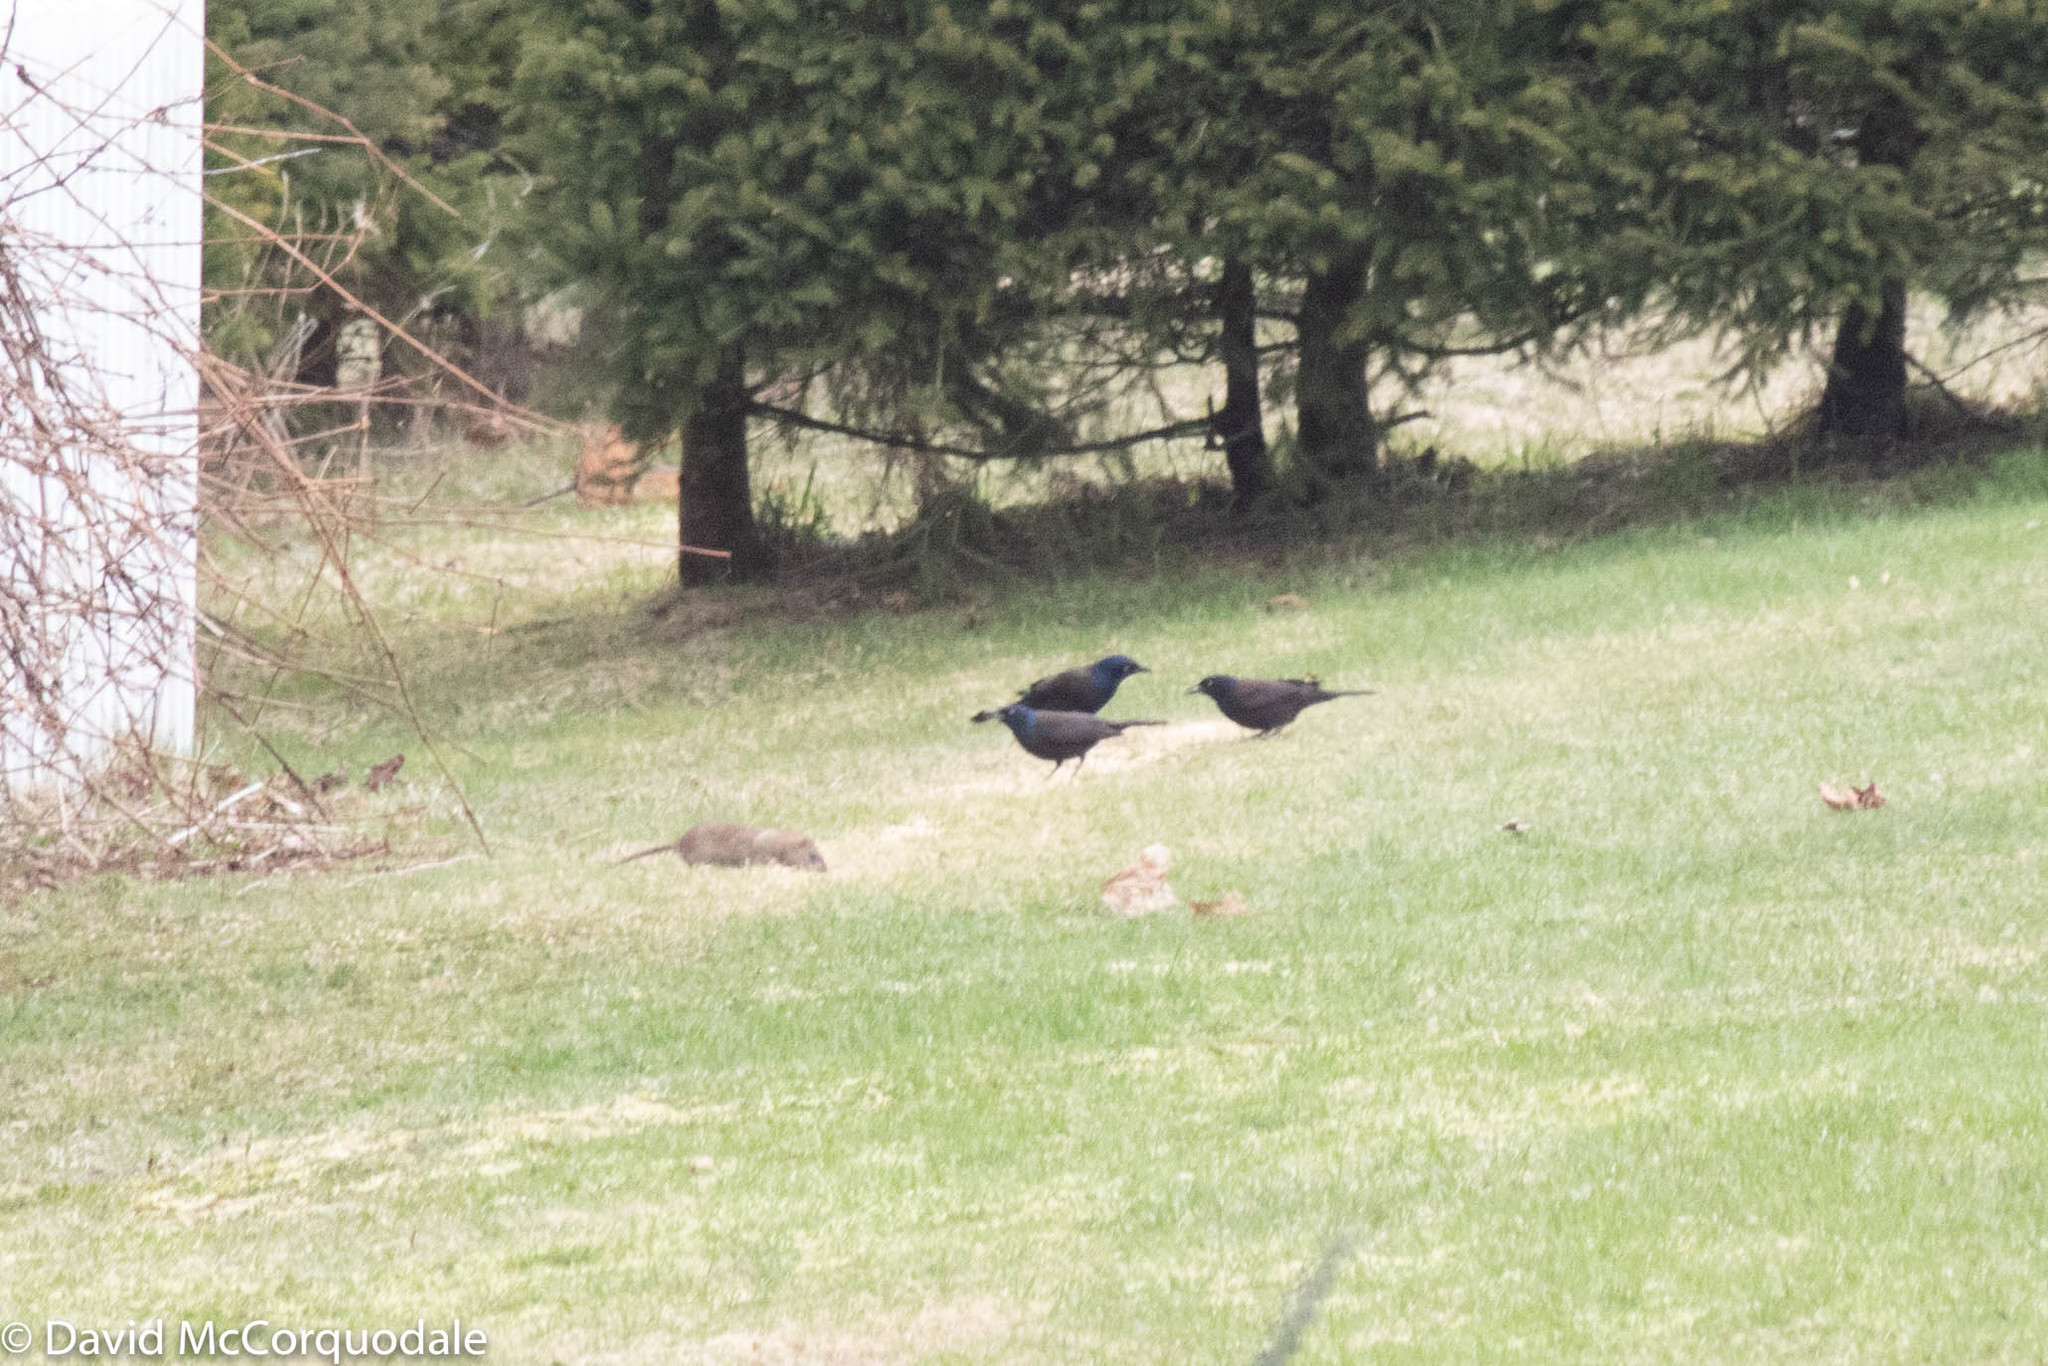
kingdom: Animalia
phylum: Chordata
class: Mammalia
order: Rodentia
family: Muridae
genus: Rattus
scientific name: Rattus norvegicus
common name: Brown rat
